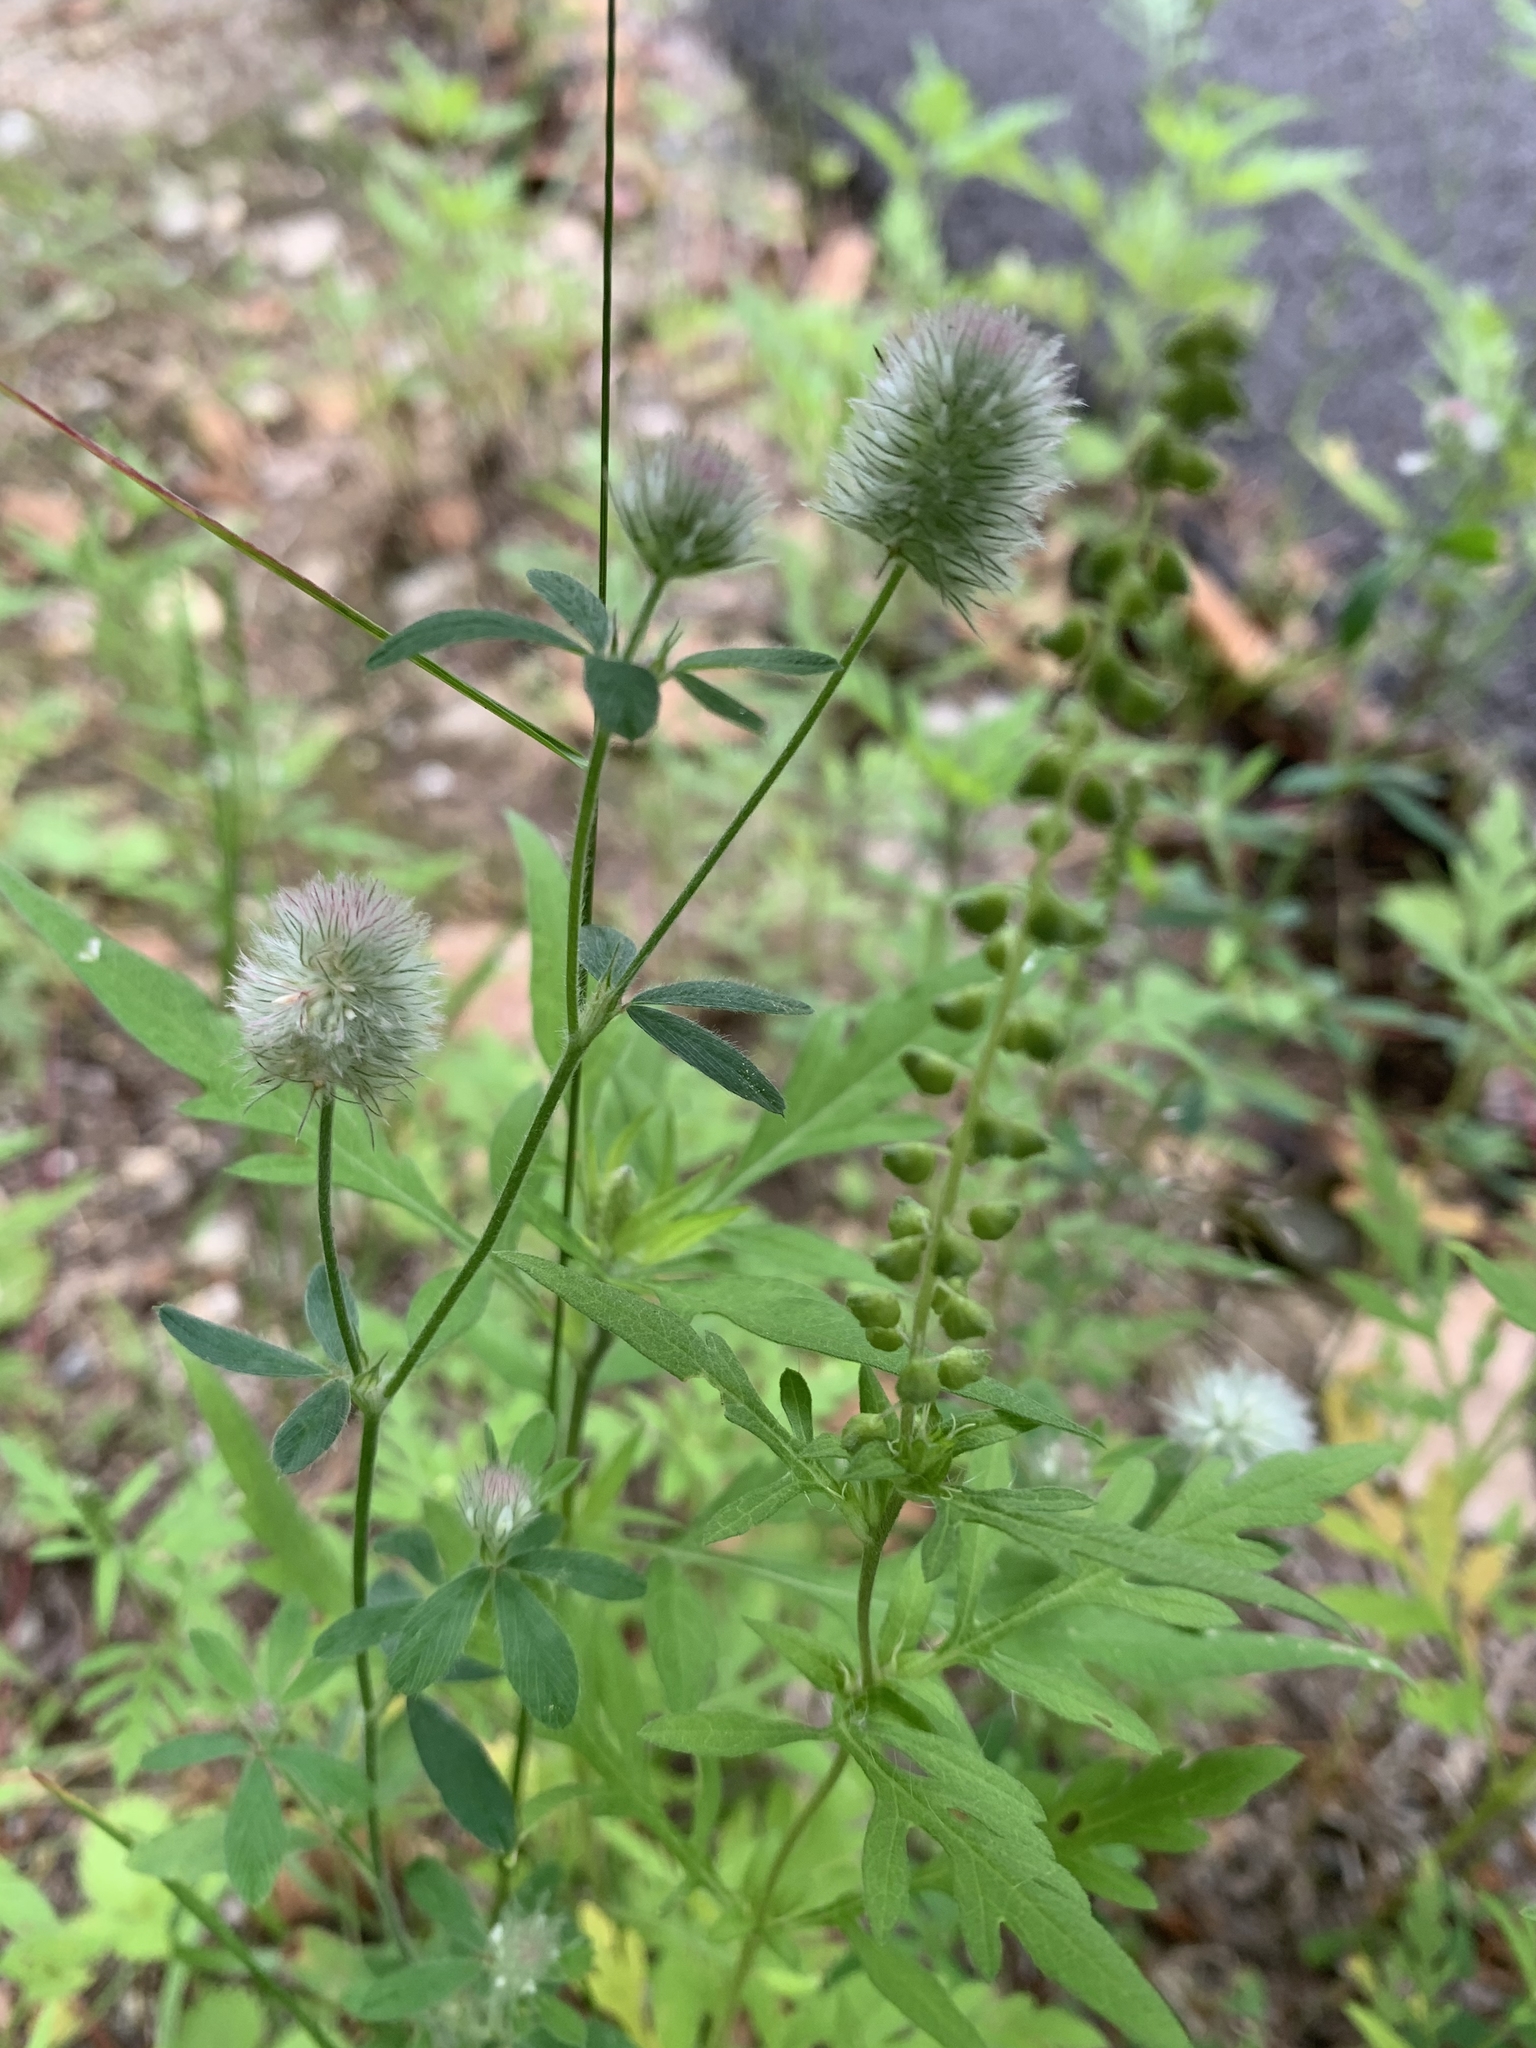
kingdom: Plantae
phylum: Tracheophyta
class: Magnoliopsida
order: Fabales
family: Fabaceae
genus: Trifolium
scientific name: Trifolium arvense
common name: Hare's-foot clover
